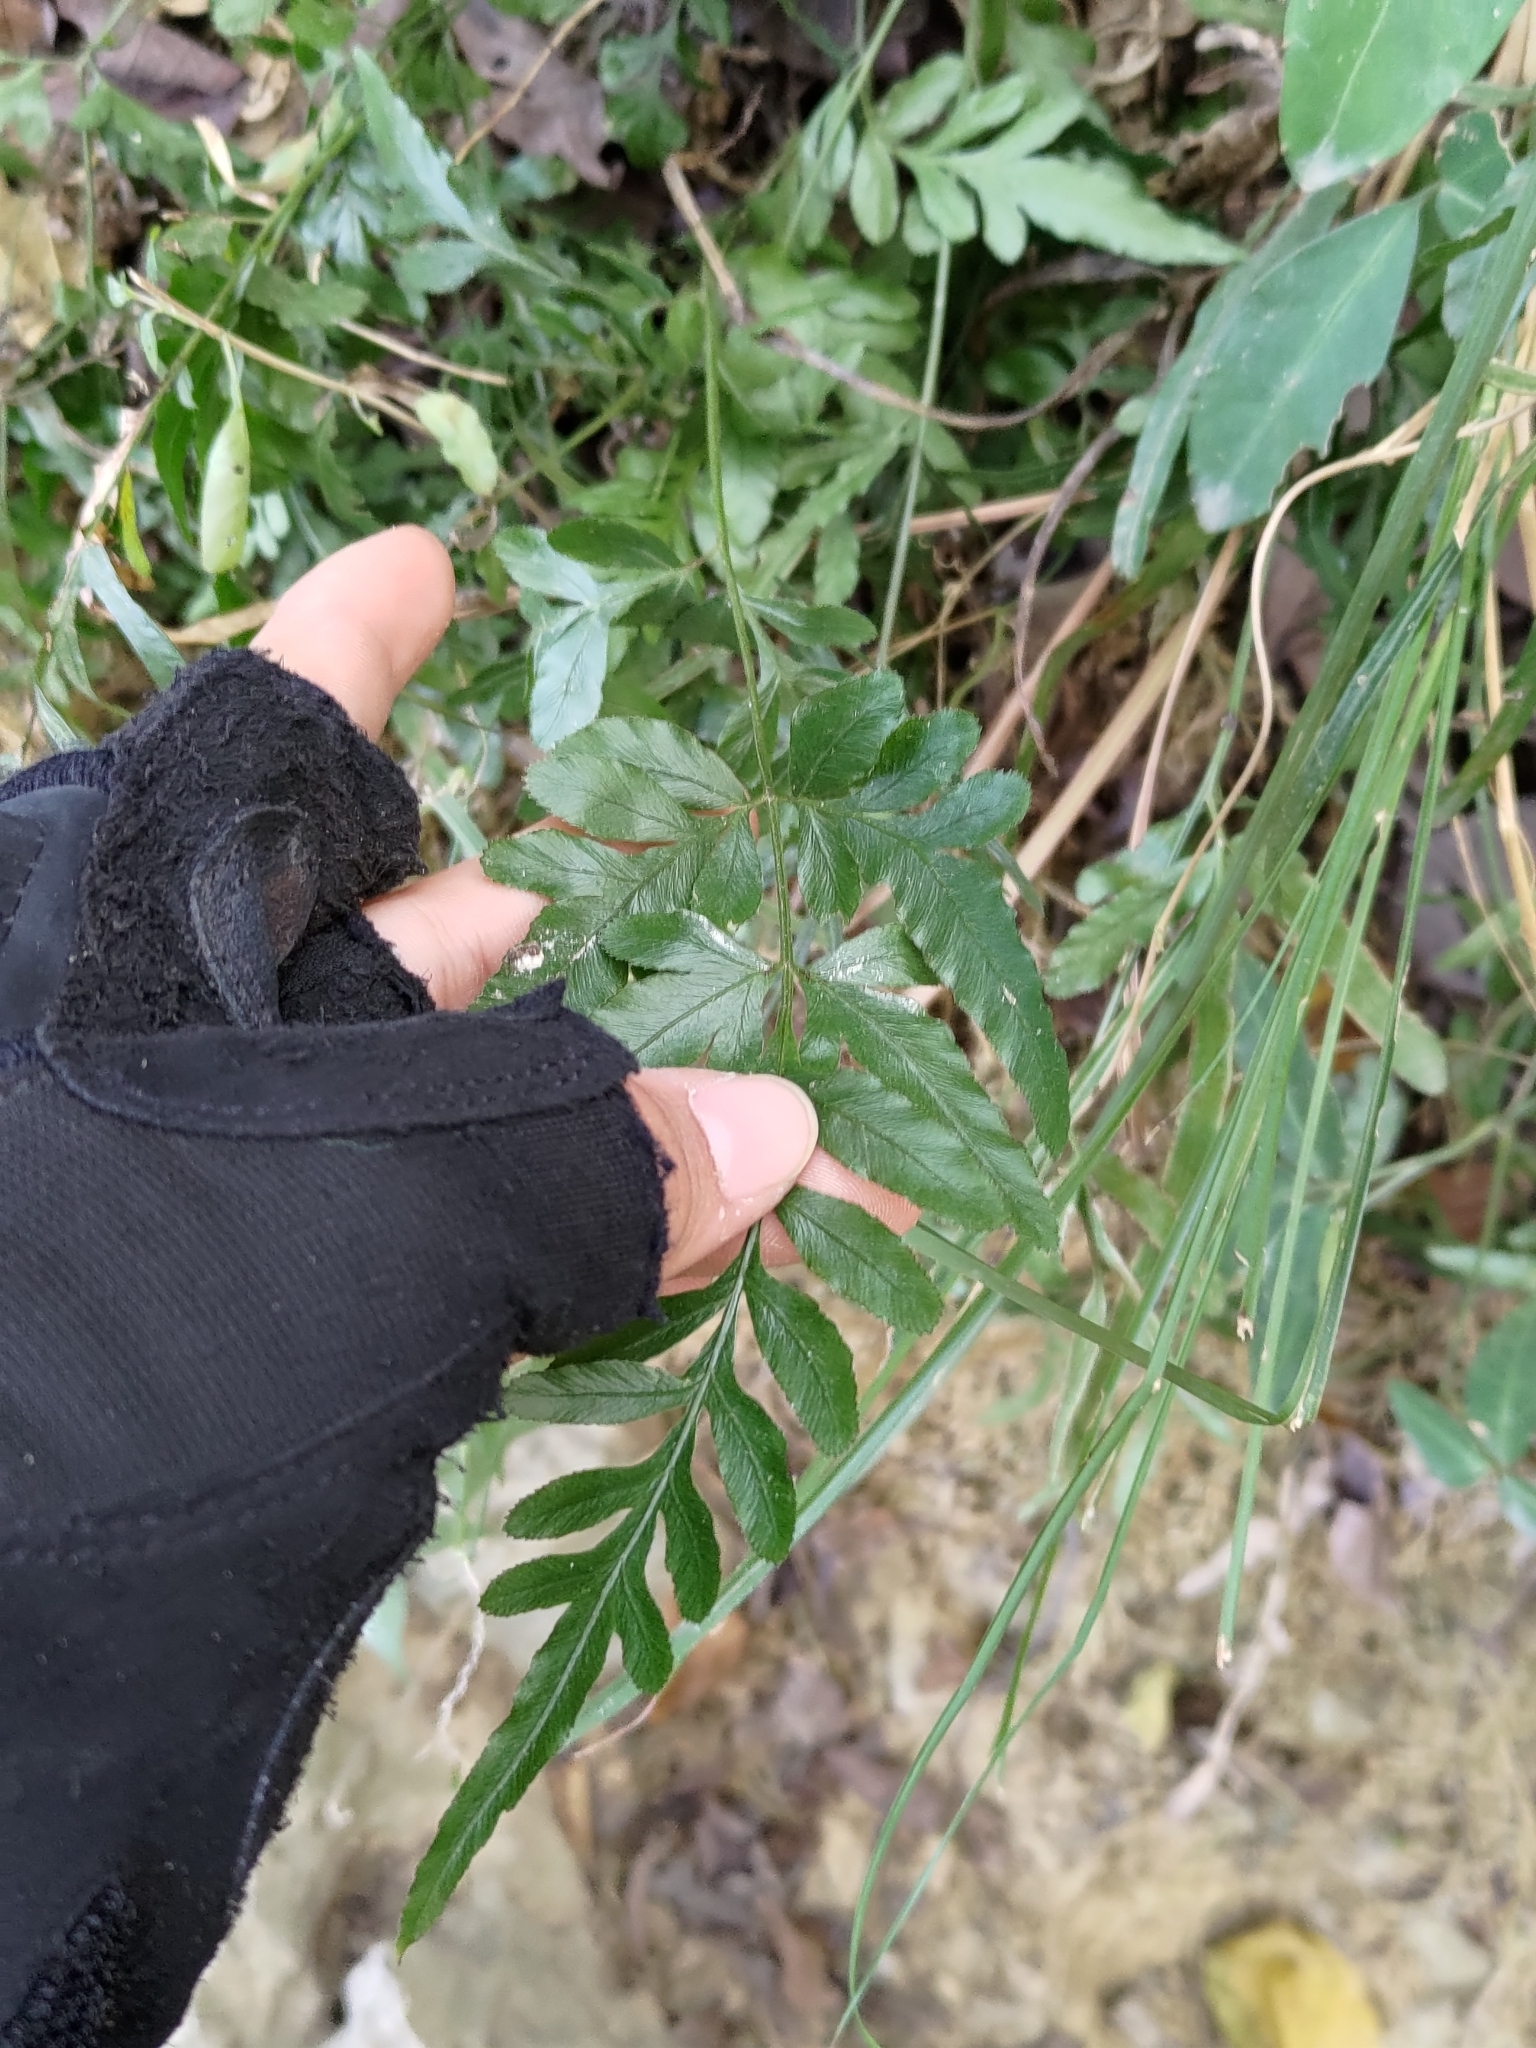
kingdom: Plantae
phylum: Tracheophyta
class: Polypodiopsida
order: Polypodiales
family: Pteridaceae
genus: Pteris
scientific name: Pteris ensiformis
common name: Sword brake
